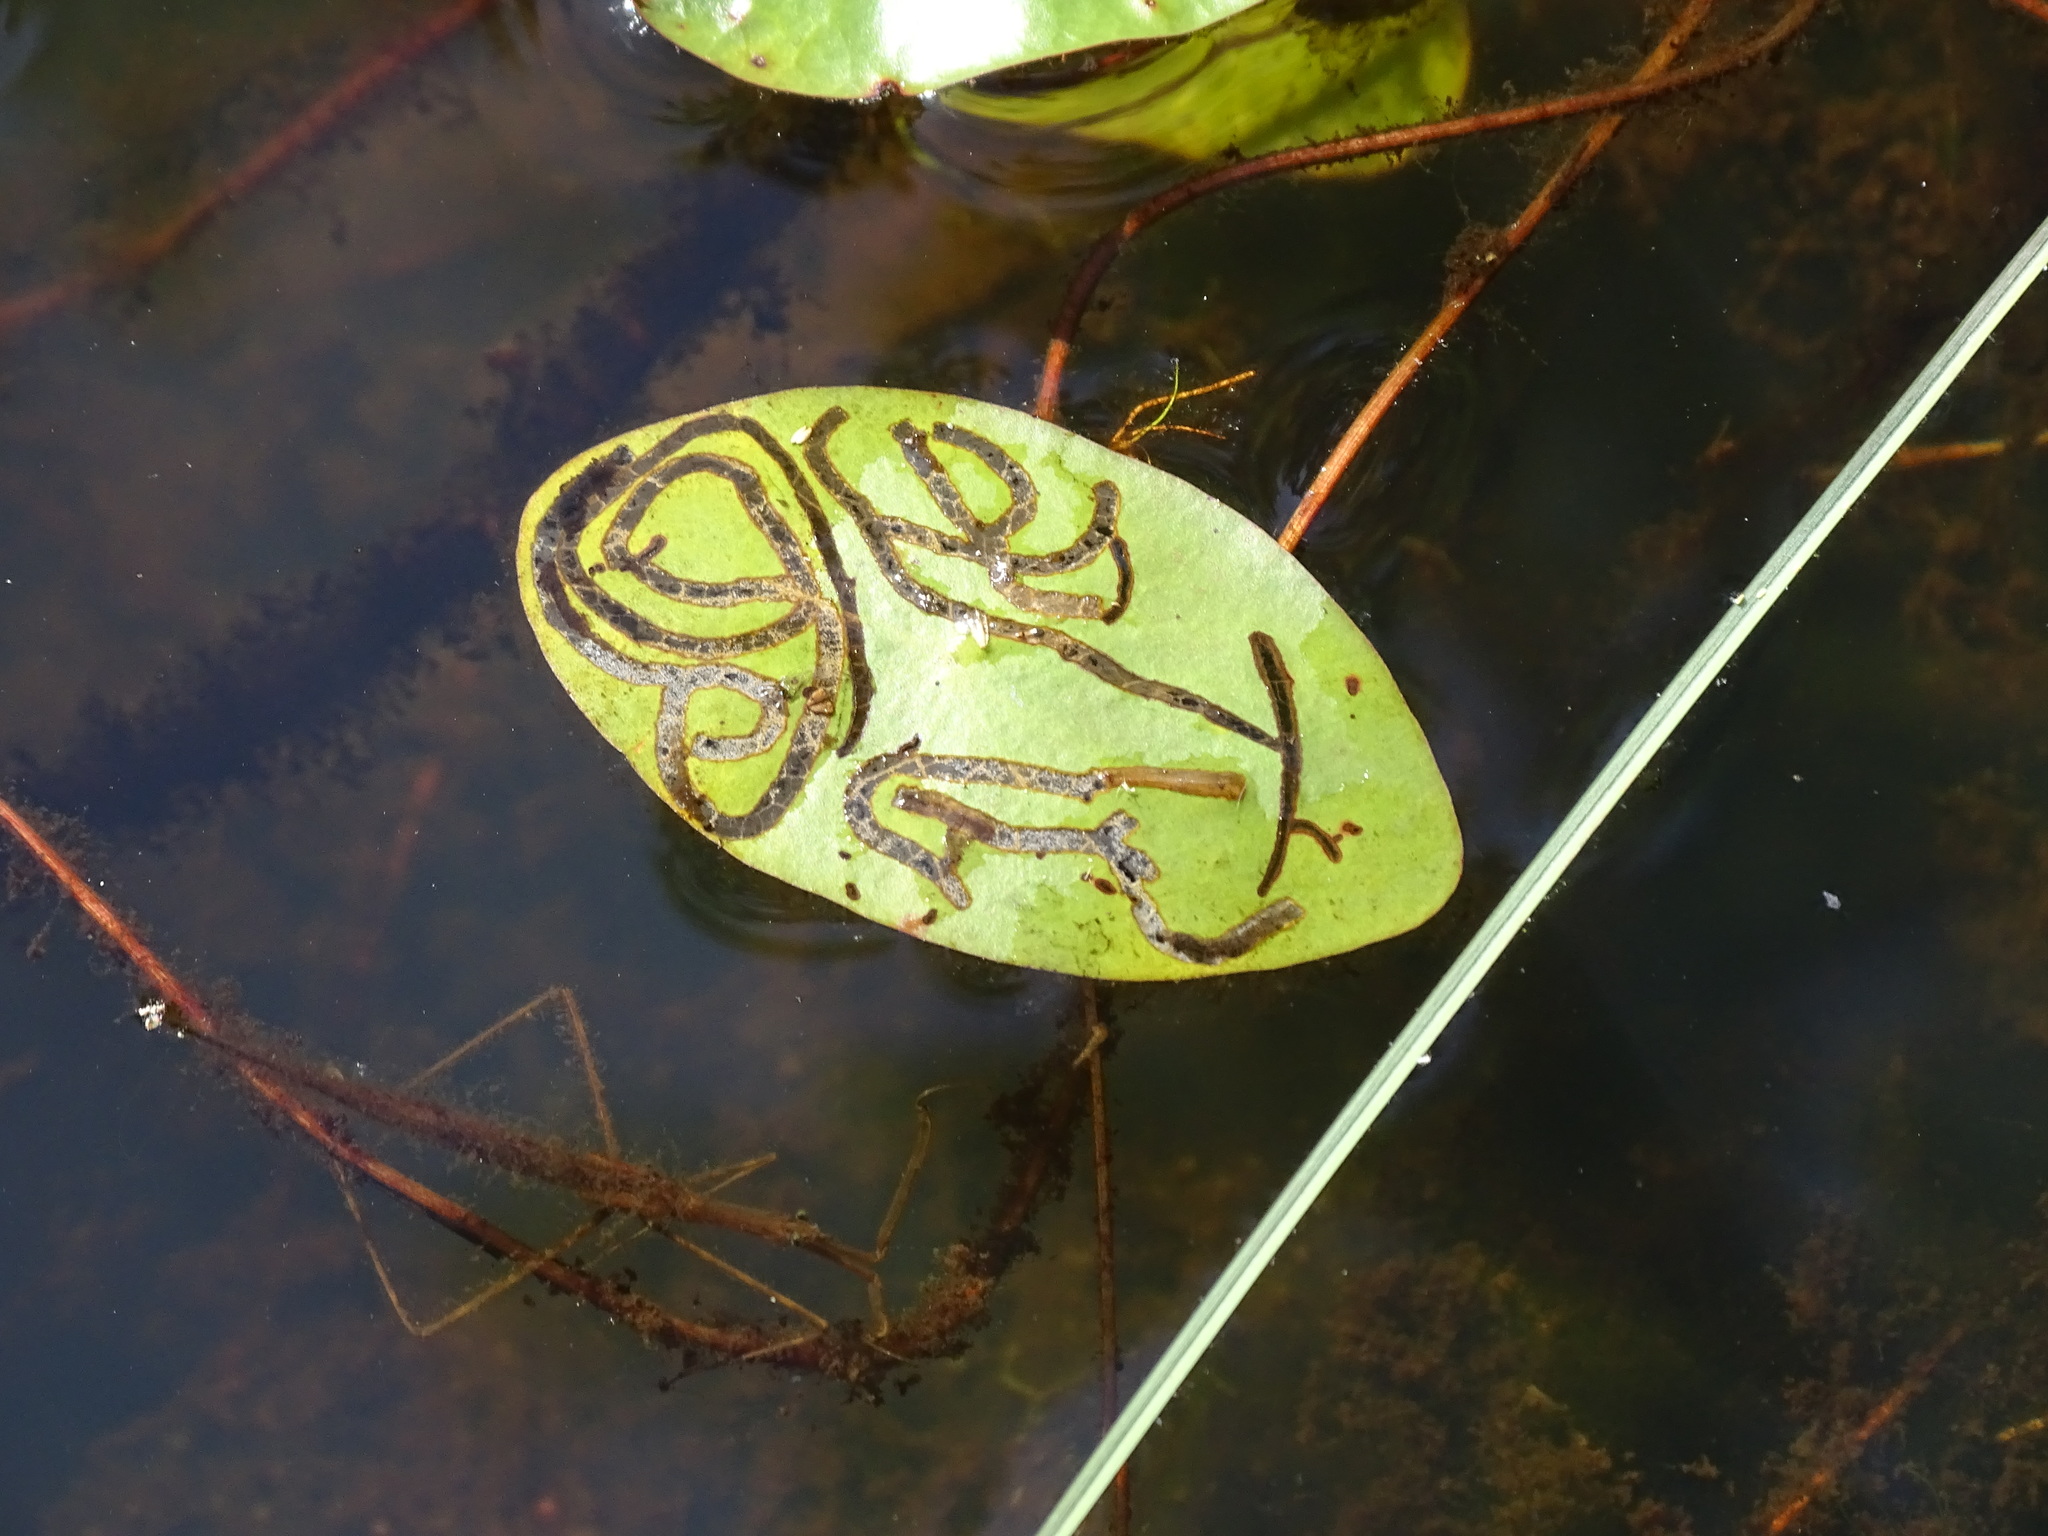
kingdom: Animalia
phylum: Arthropoda
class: Insecta
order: Diptera
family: Chironomidae
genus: Polypedilum
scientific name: Polypedilum braseniae
